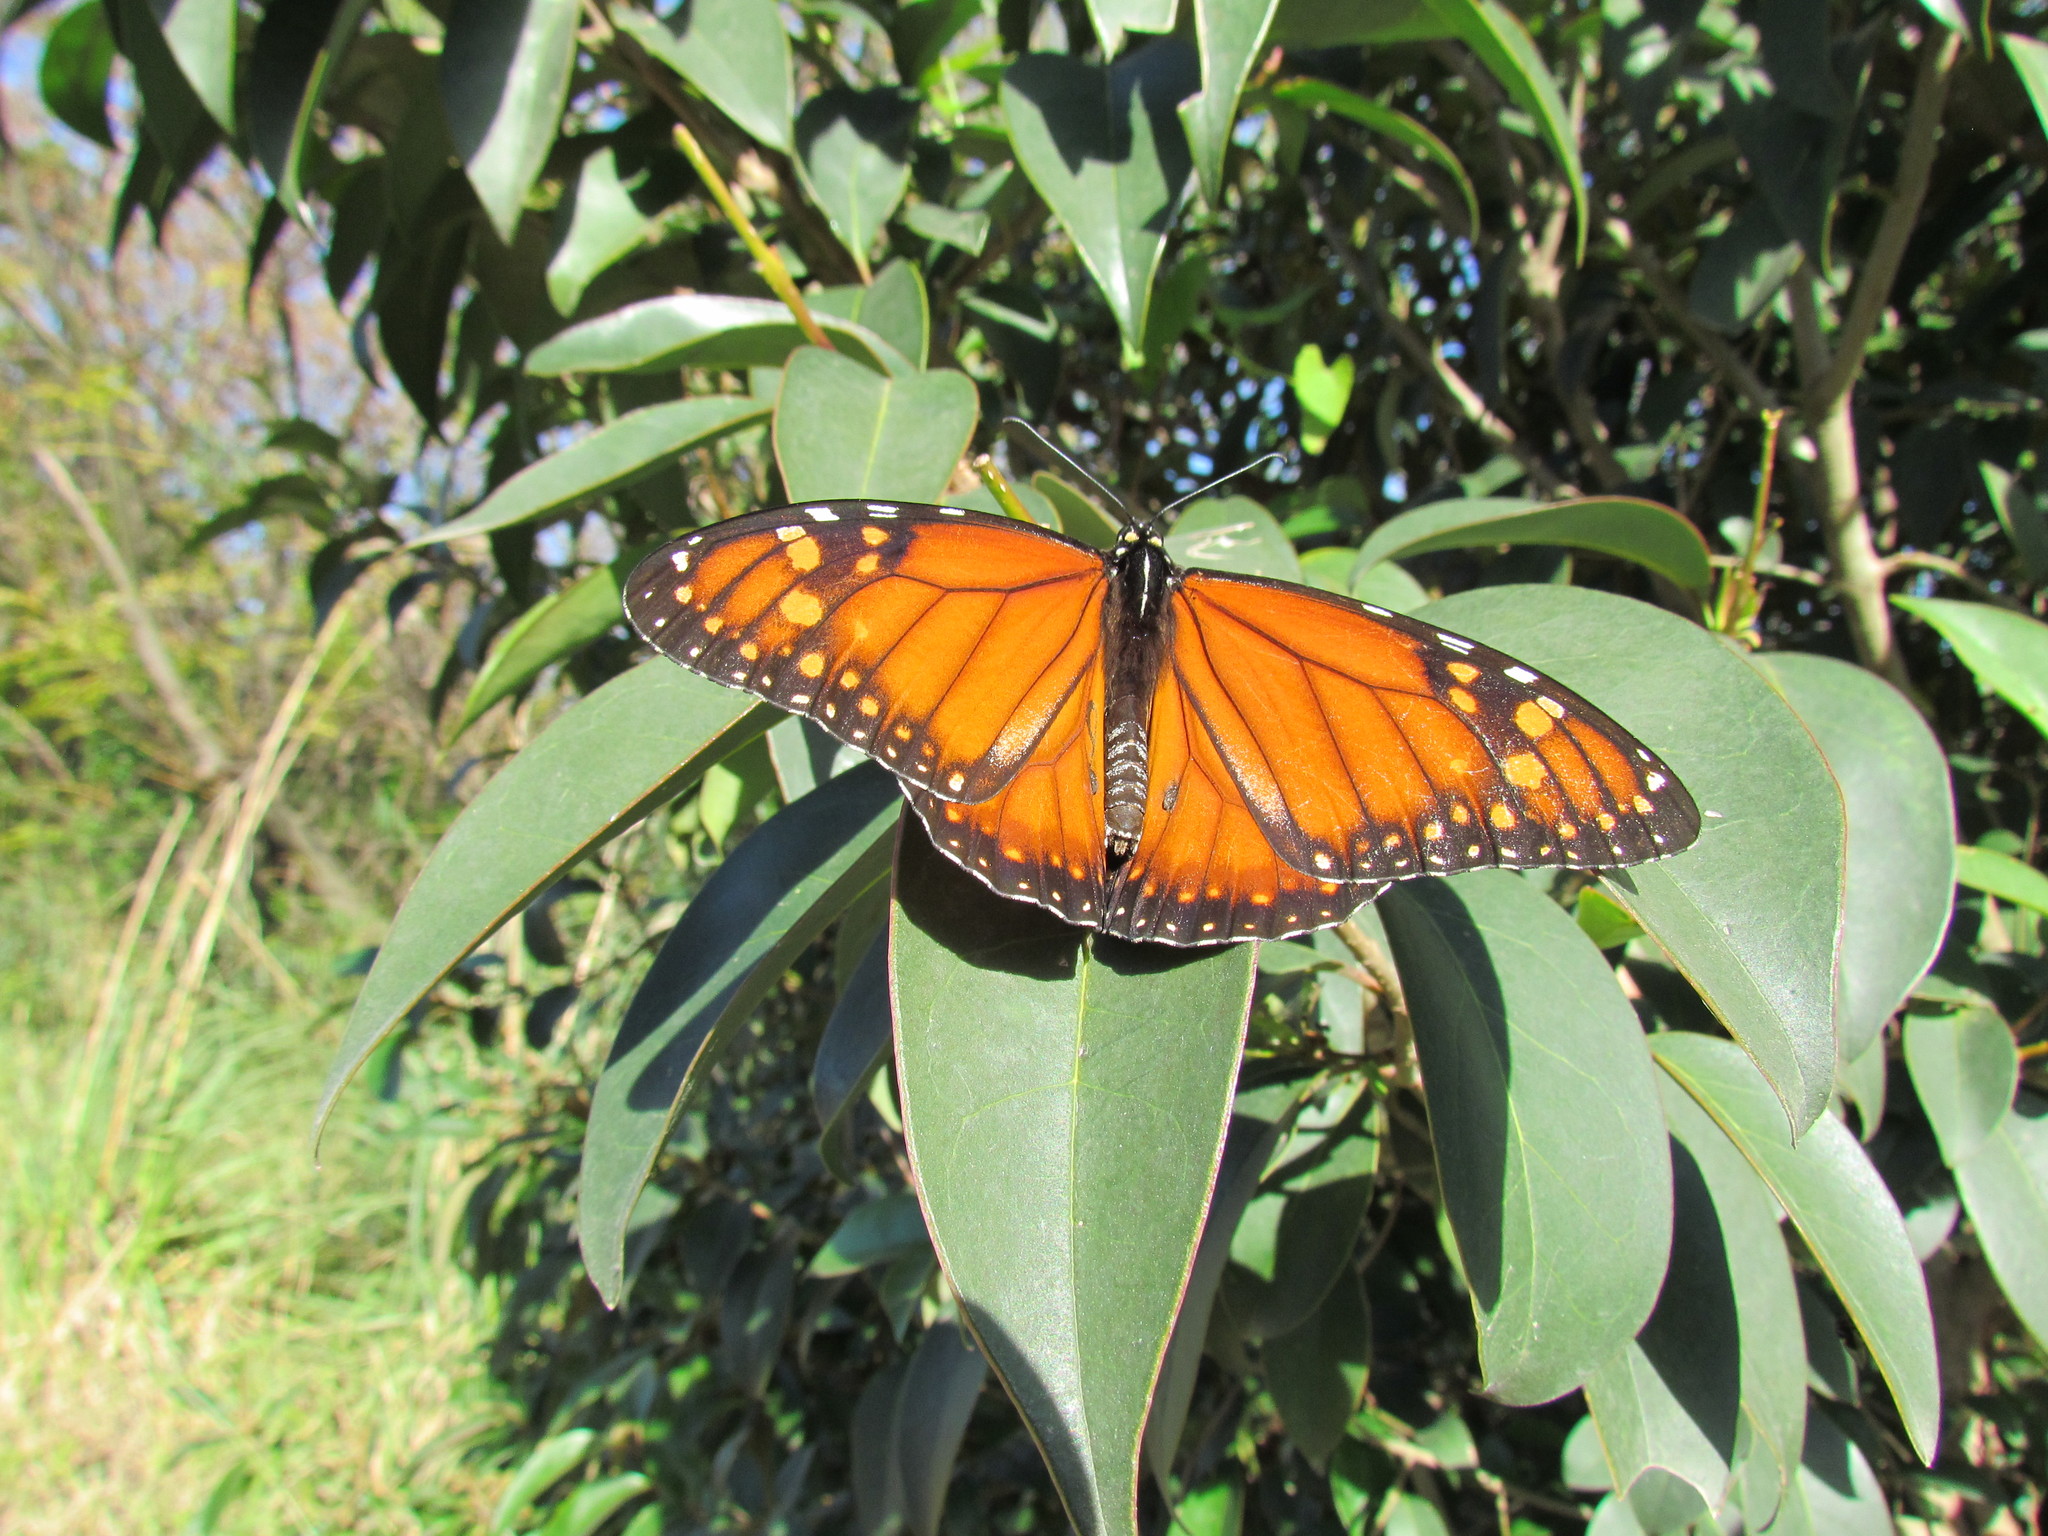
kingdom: Animalia
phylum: Arthropoda
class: Insecta
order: Lepidoptera
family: Nymphalidae
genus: Danaus
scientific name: Danaus erippus
